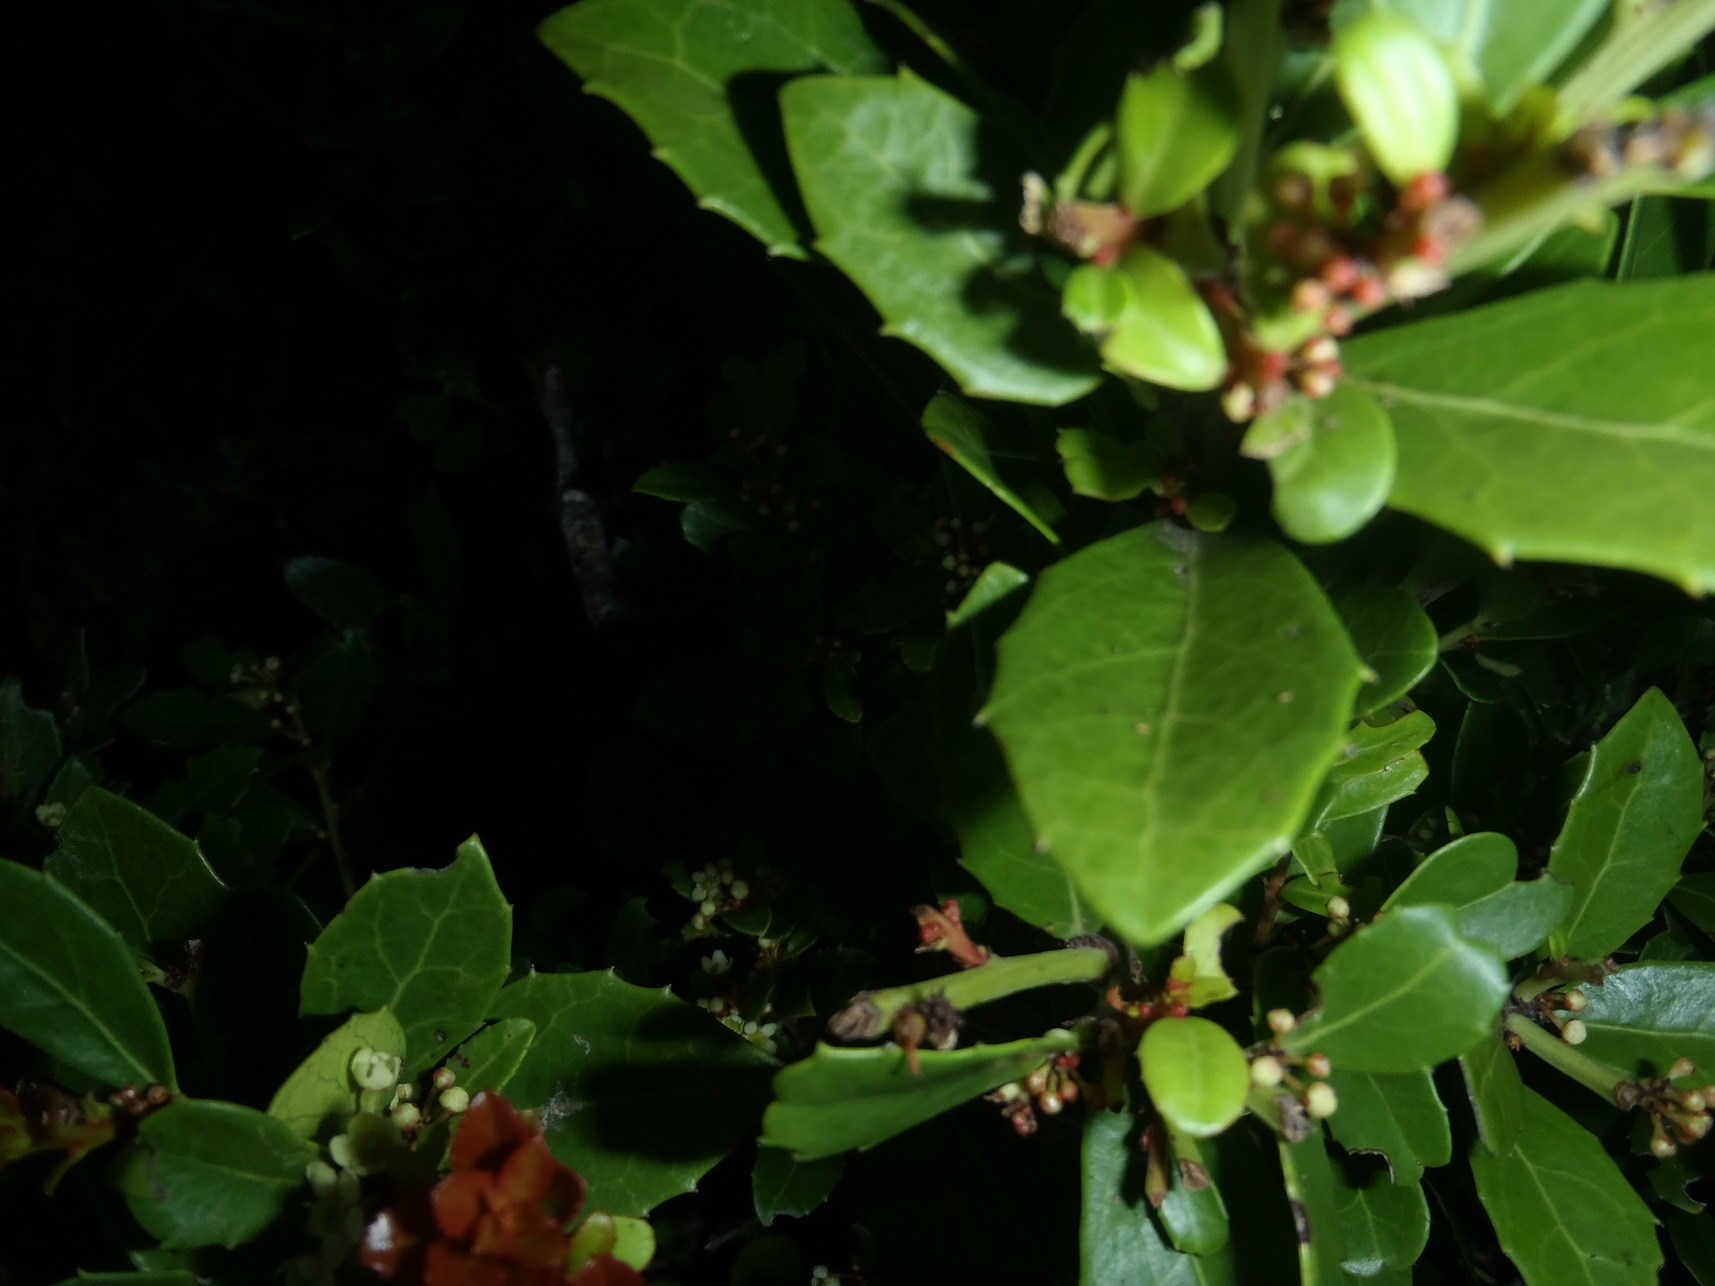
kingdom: Plantae
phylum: Tracheophyta
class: Magnoliopsida
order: Celastrales
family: Celastraceae
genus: Gymnosporia
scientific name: Gymnosporia procumbens
